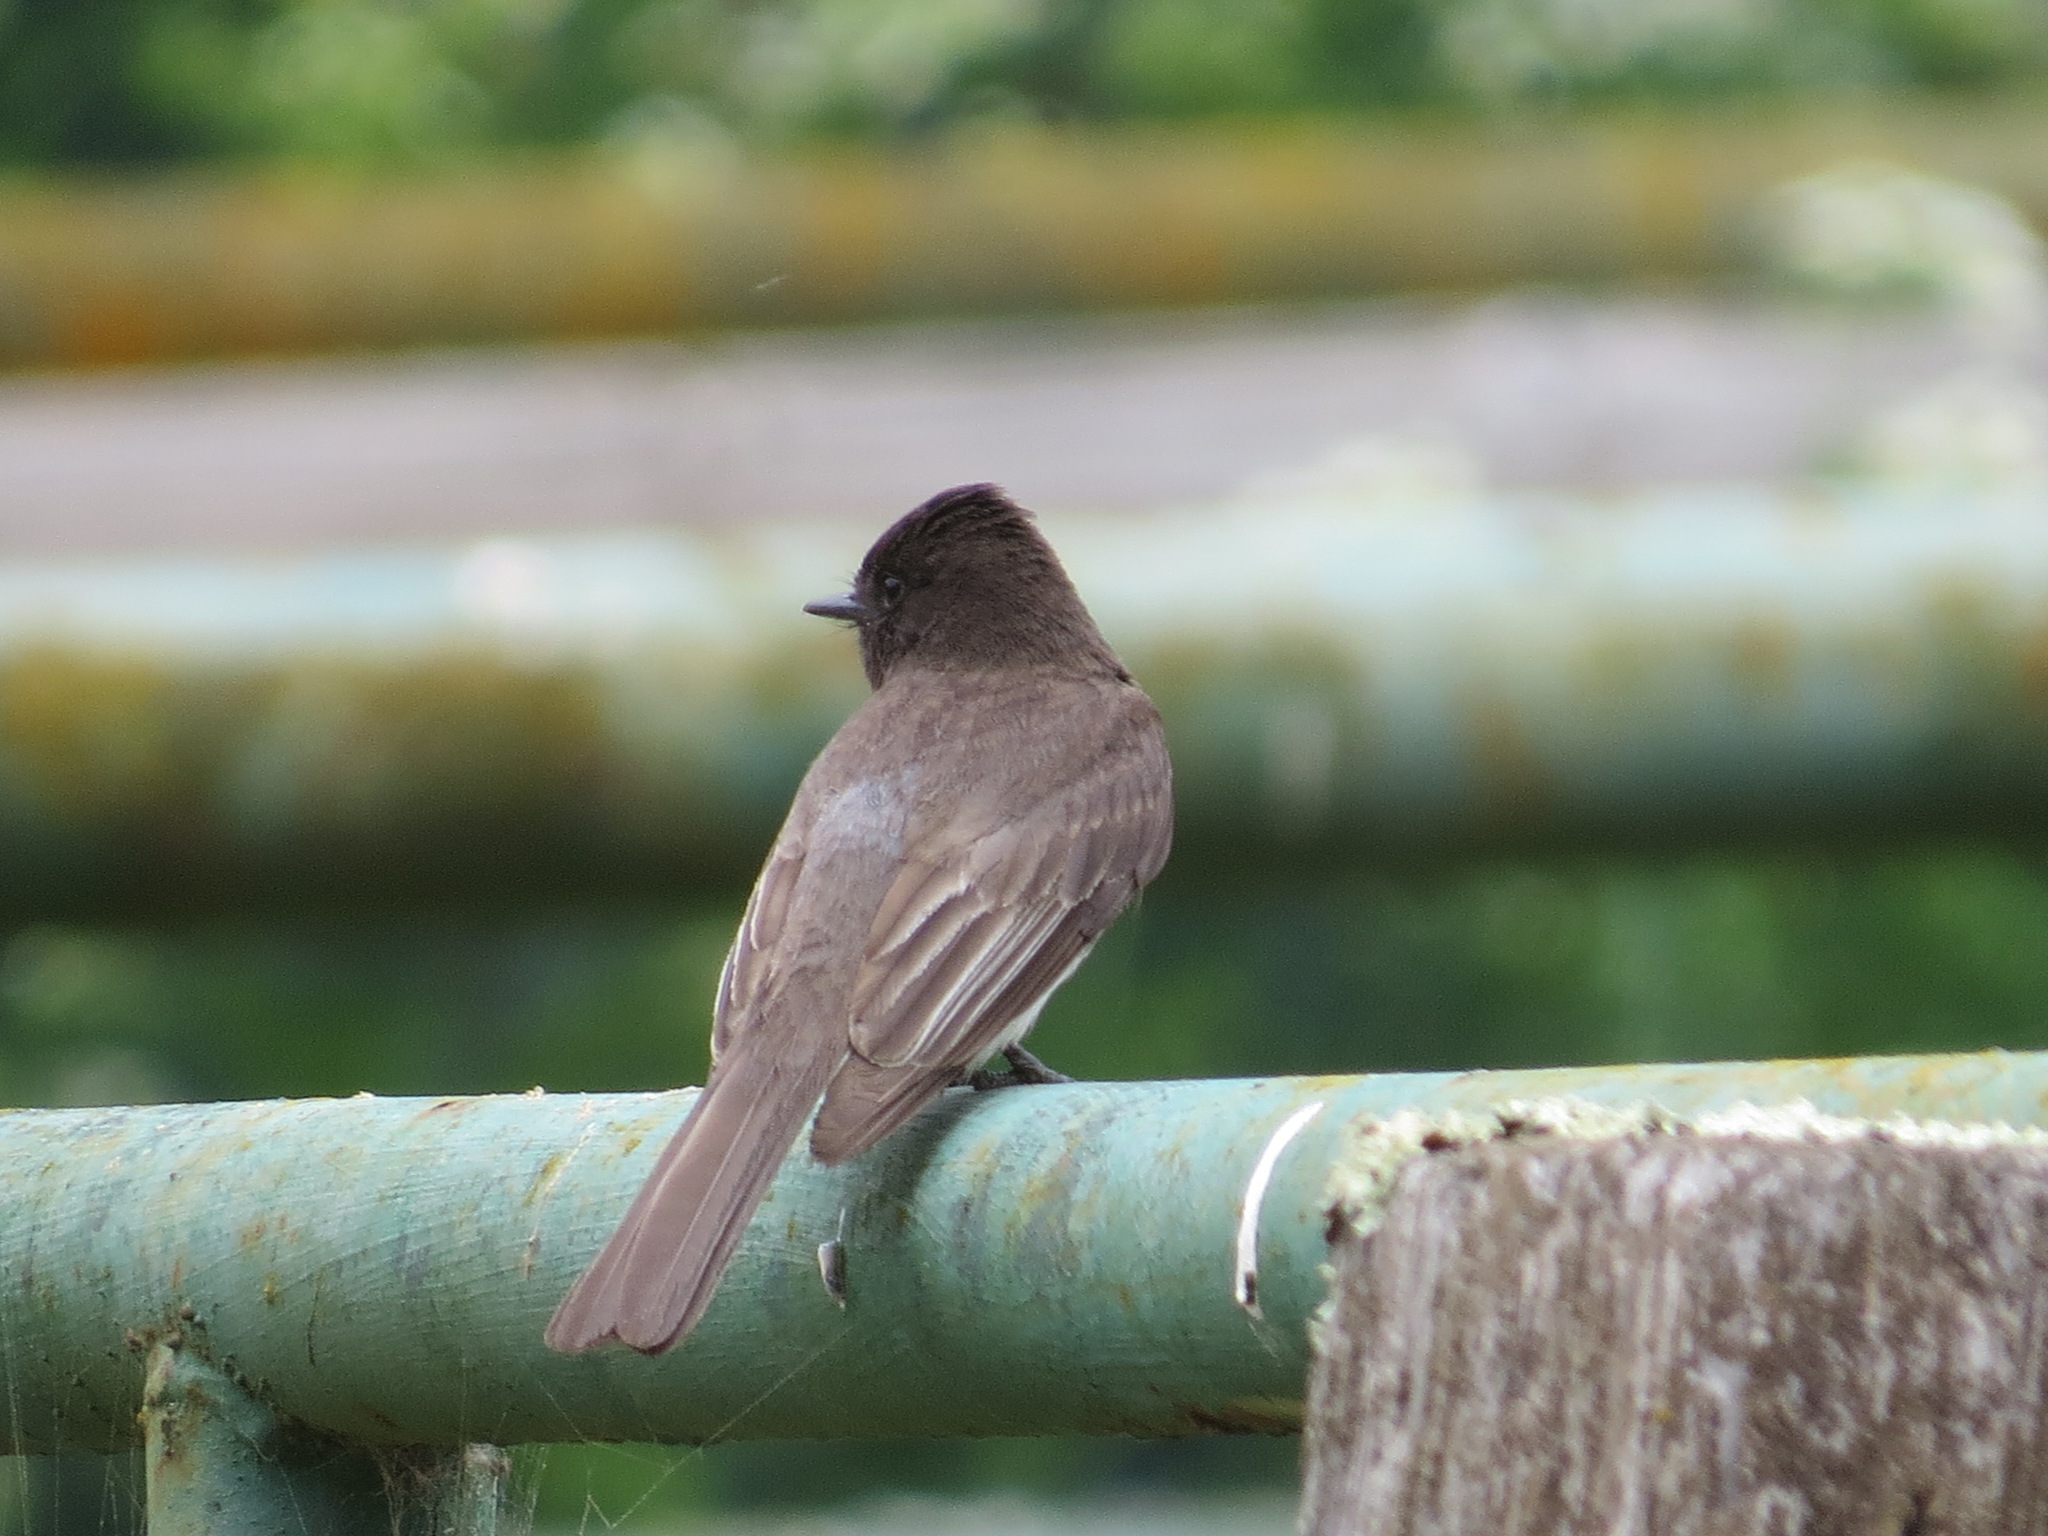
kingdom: Animalia
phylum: Chordata
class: Aves
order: Passeriformes
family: Tyrannidae
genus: Sayornis
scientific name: Sayornis nigricans
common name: Black phoebe
